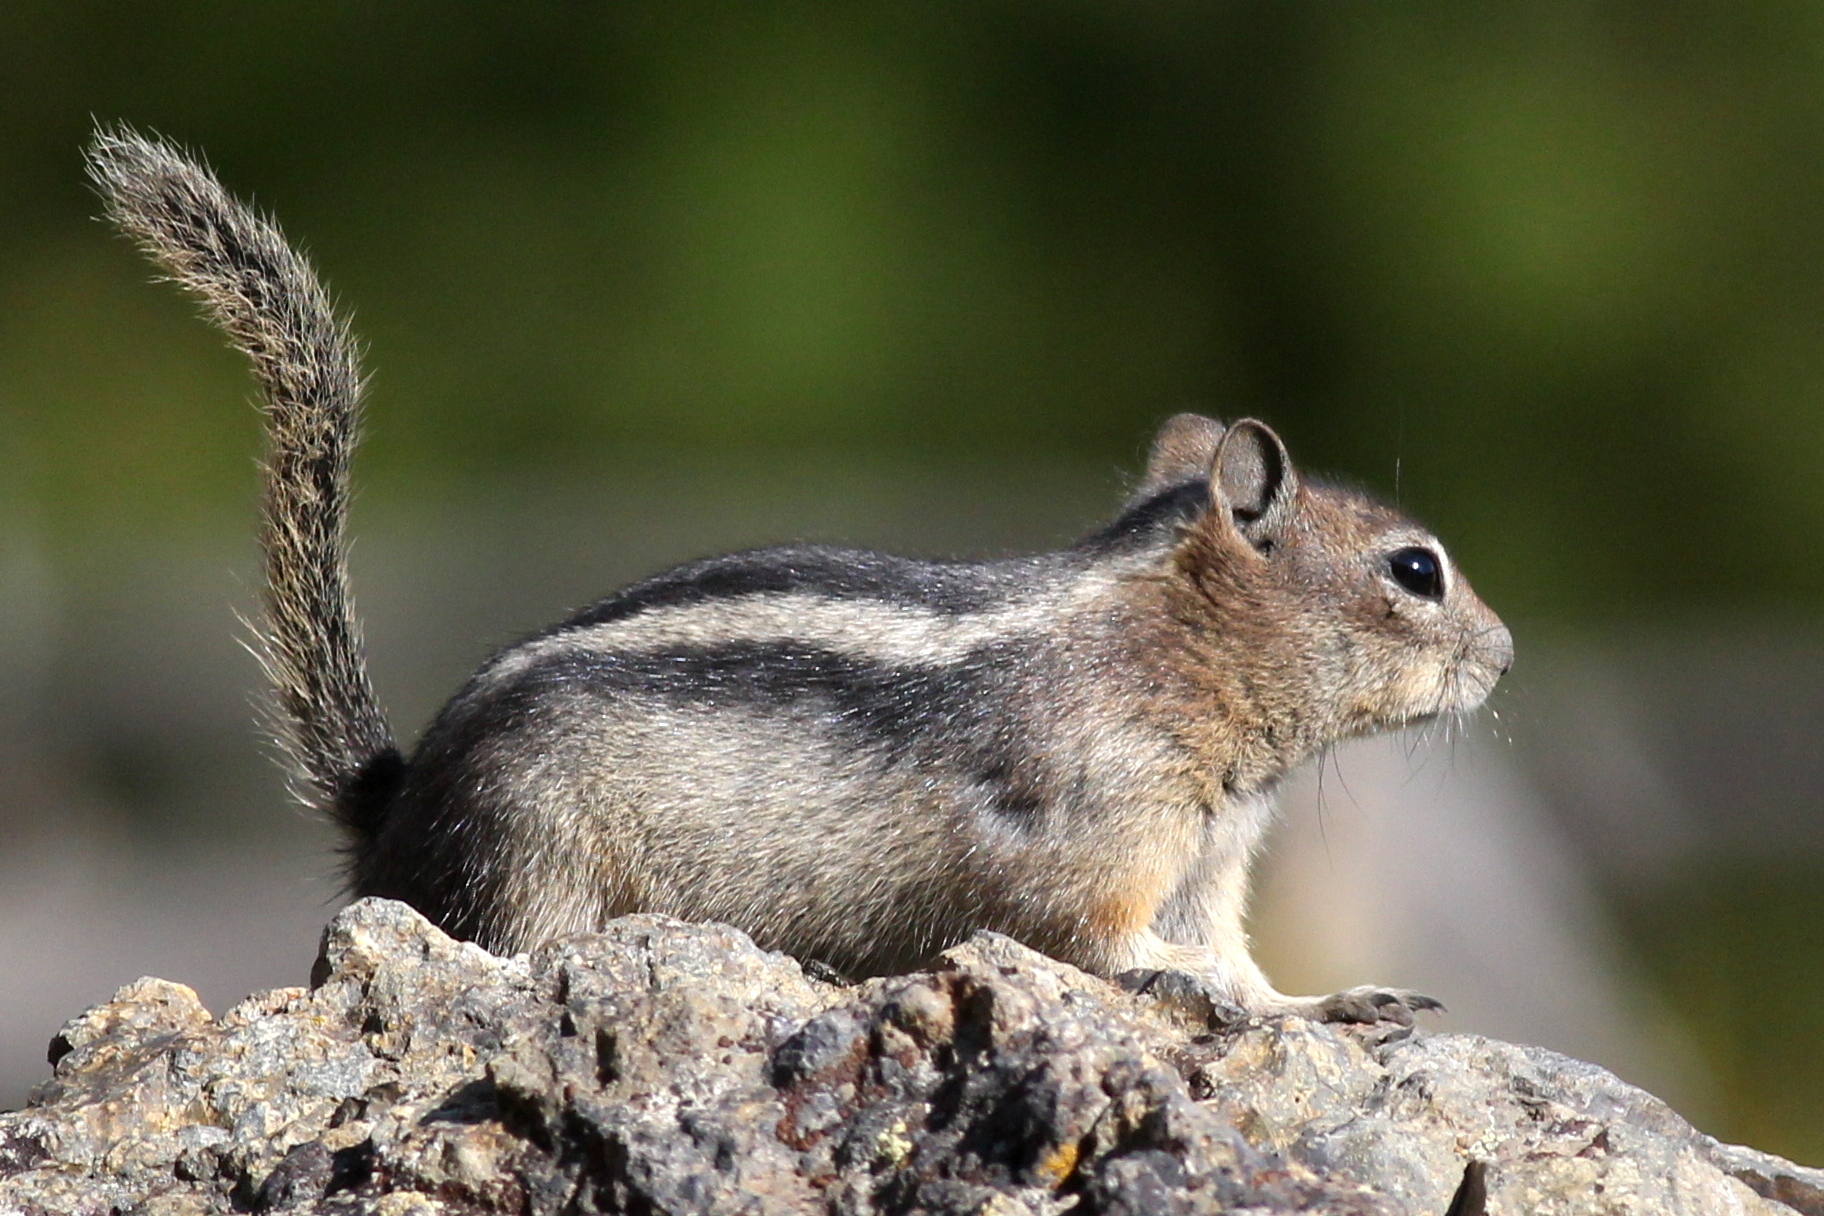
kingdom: Animalia
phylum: Chordata
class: Mammalia
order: Rodentia
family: Sciuridae
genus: Callospermophilus
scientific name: Callospermophilus lateralis
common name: Golden-mantled ground squirrel
